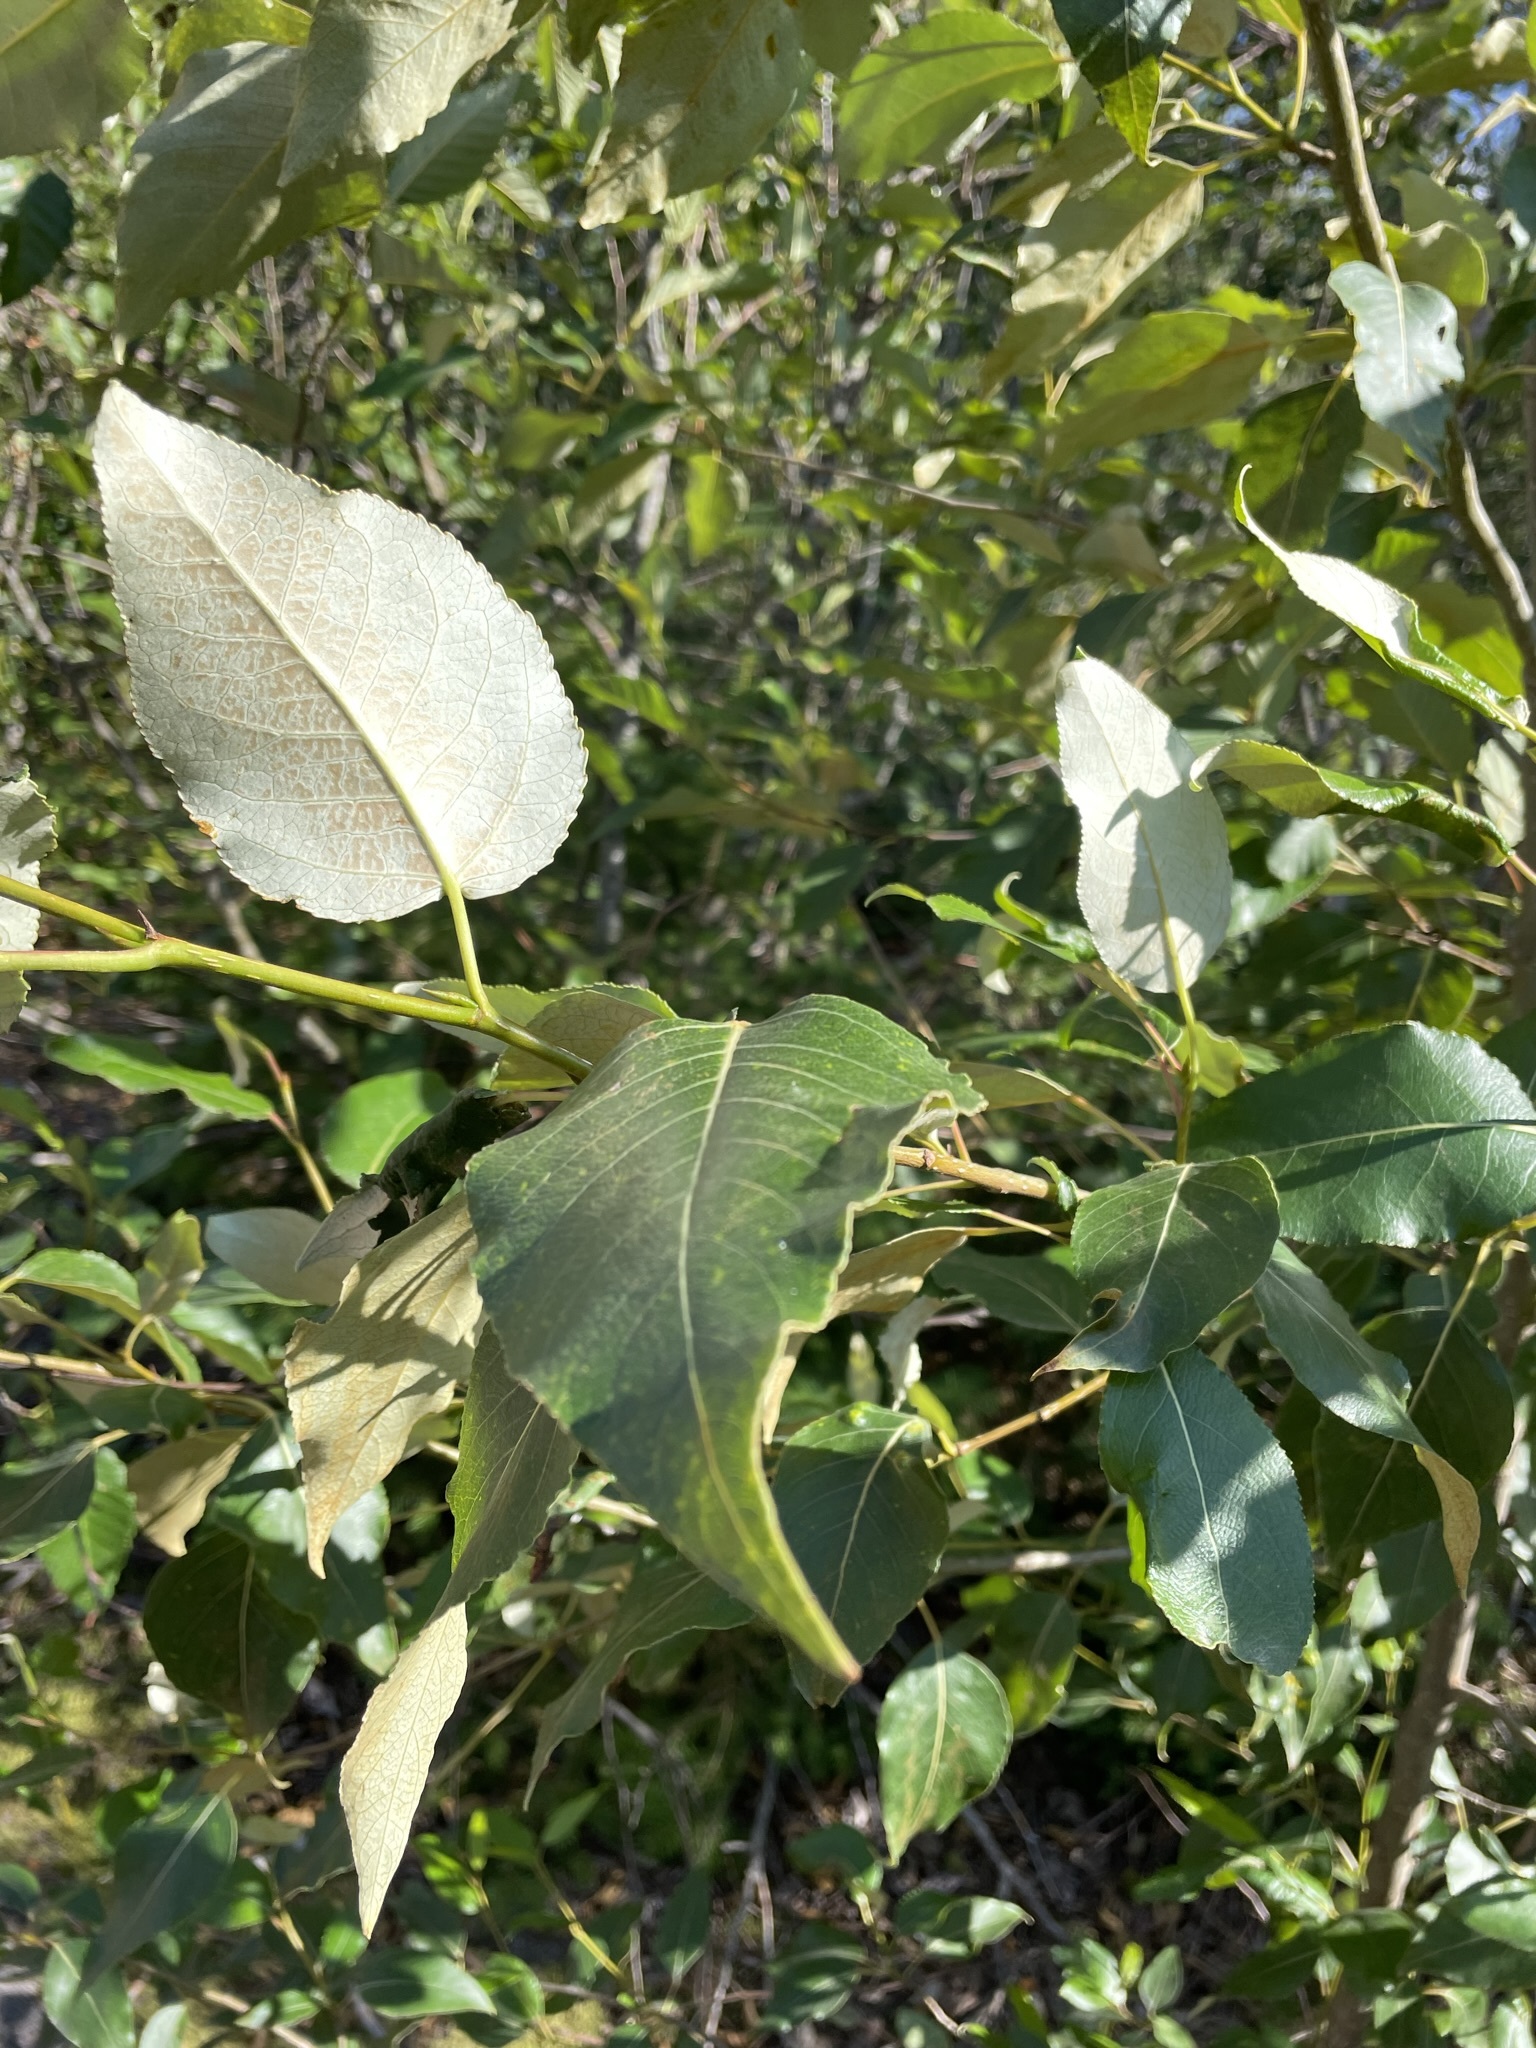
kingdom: Plantae
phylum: Tracheophyta
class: Magnoliopsida
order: Malpighiales
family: Salicaceae
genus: Populus
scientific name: Populus trichocarpa
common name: Black cottonwood
